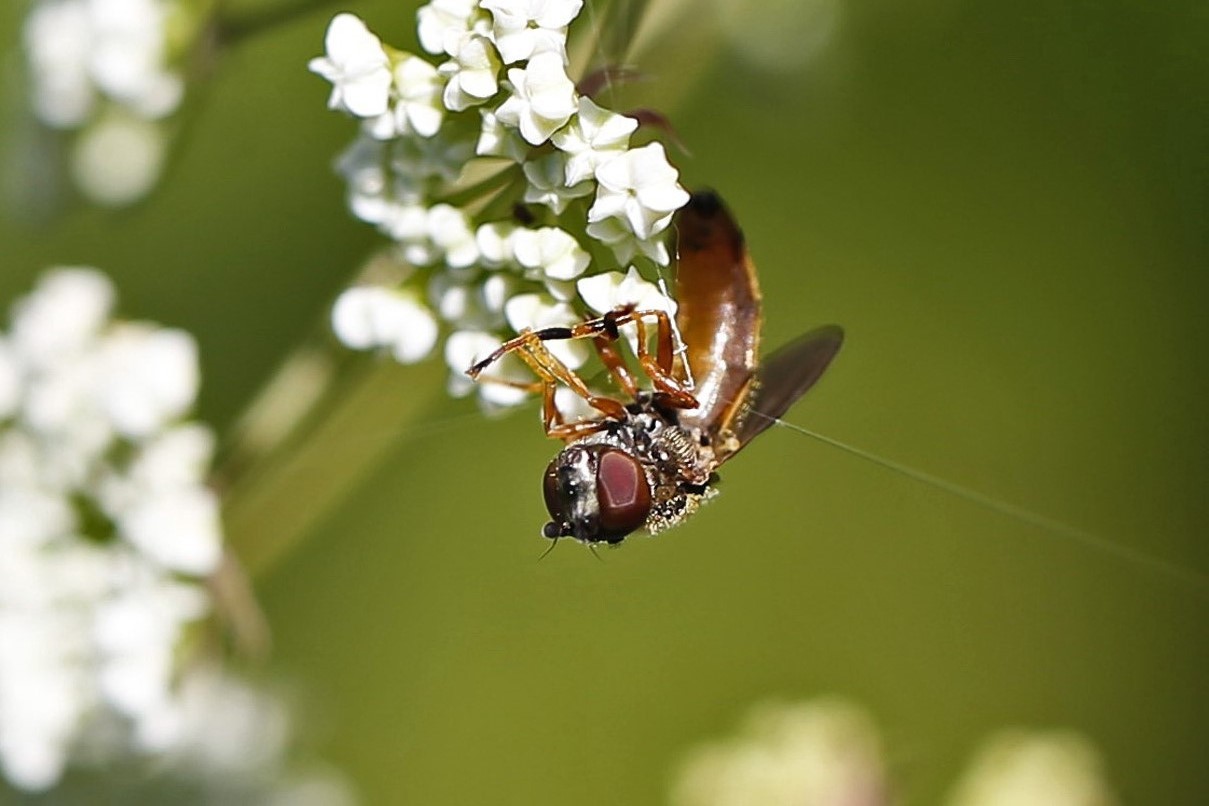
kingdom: Animalia
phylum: Arthropoda
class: Insecta
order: Diptera
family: Syrphidae
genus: Platycheirus
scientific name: Platycheirus quadratus
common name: Meadow sedgesitter
